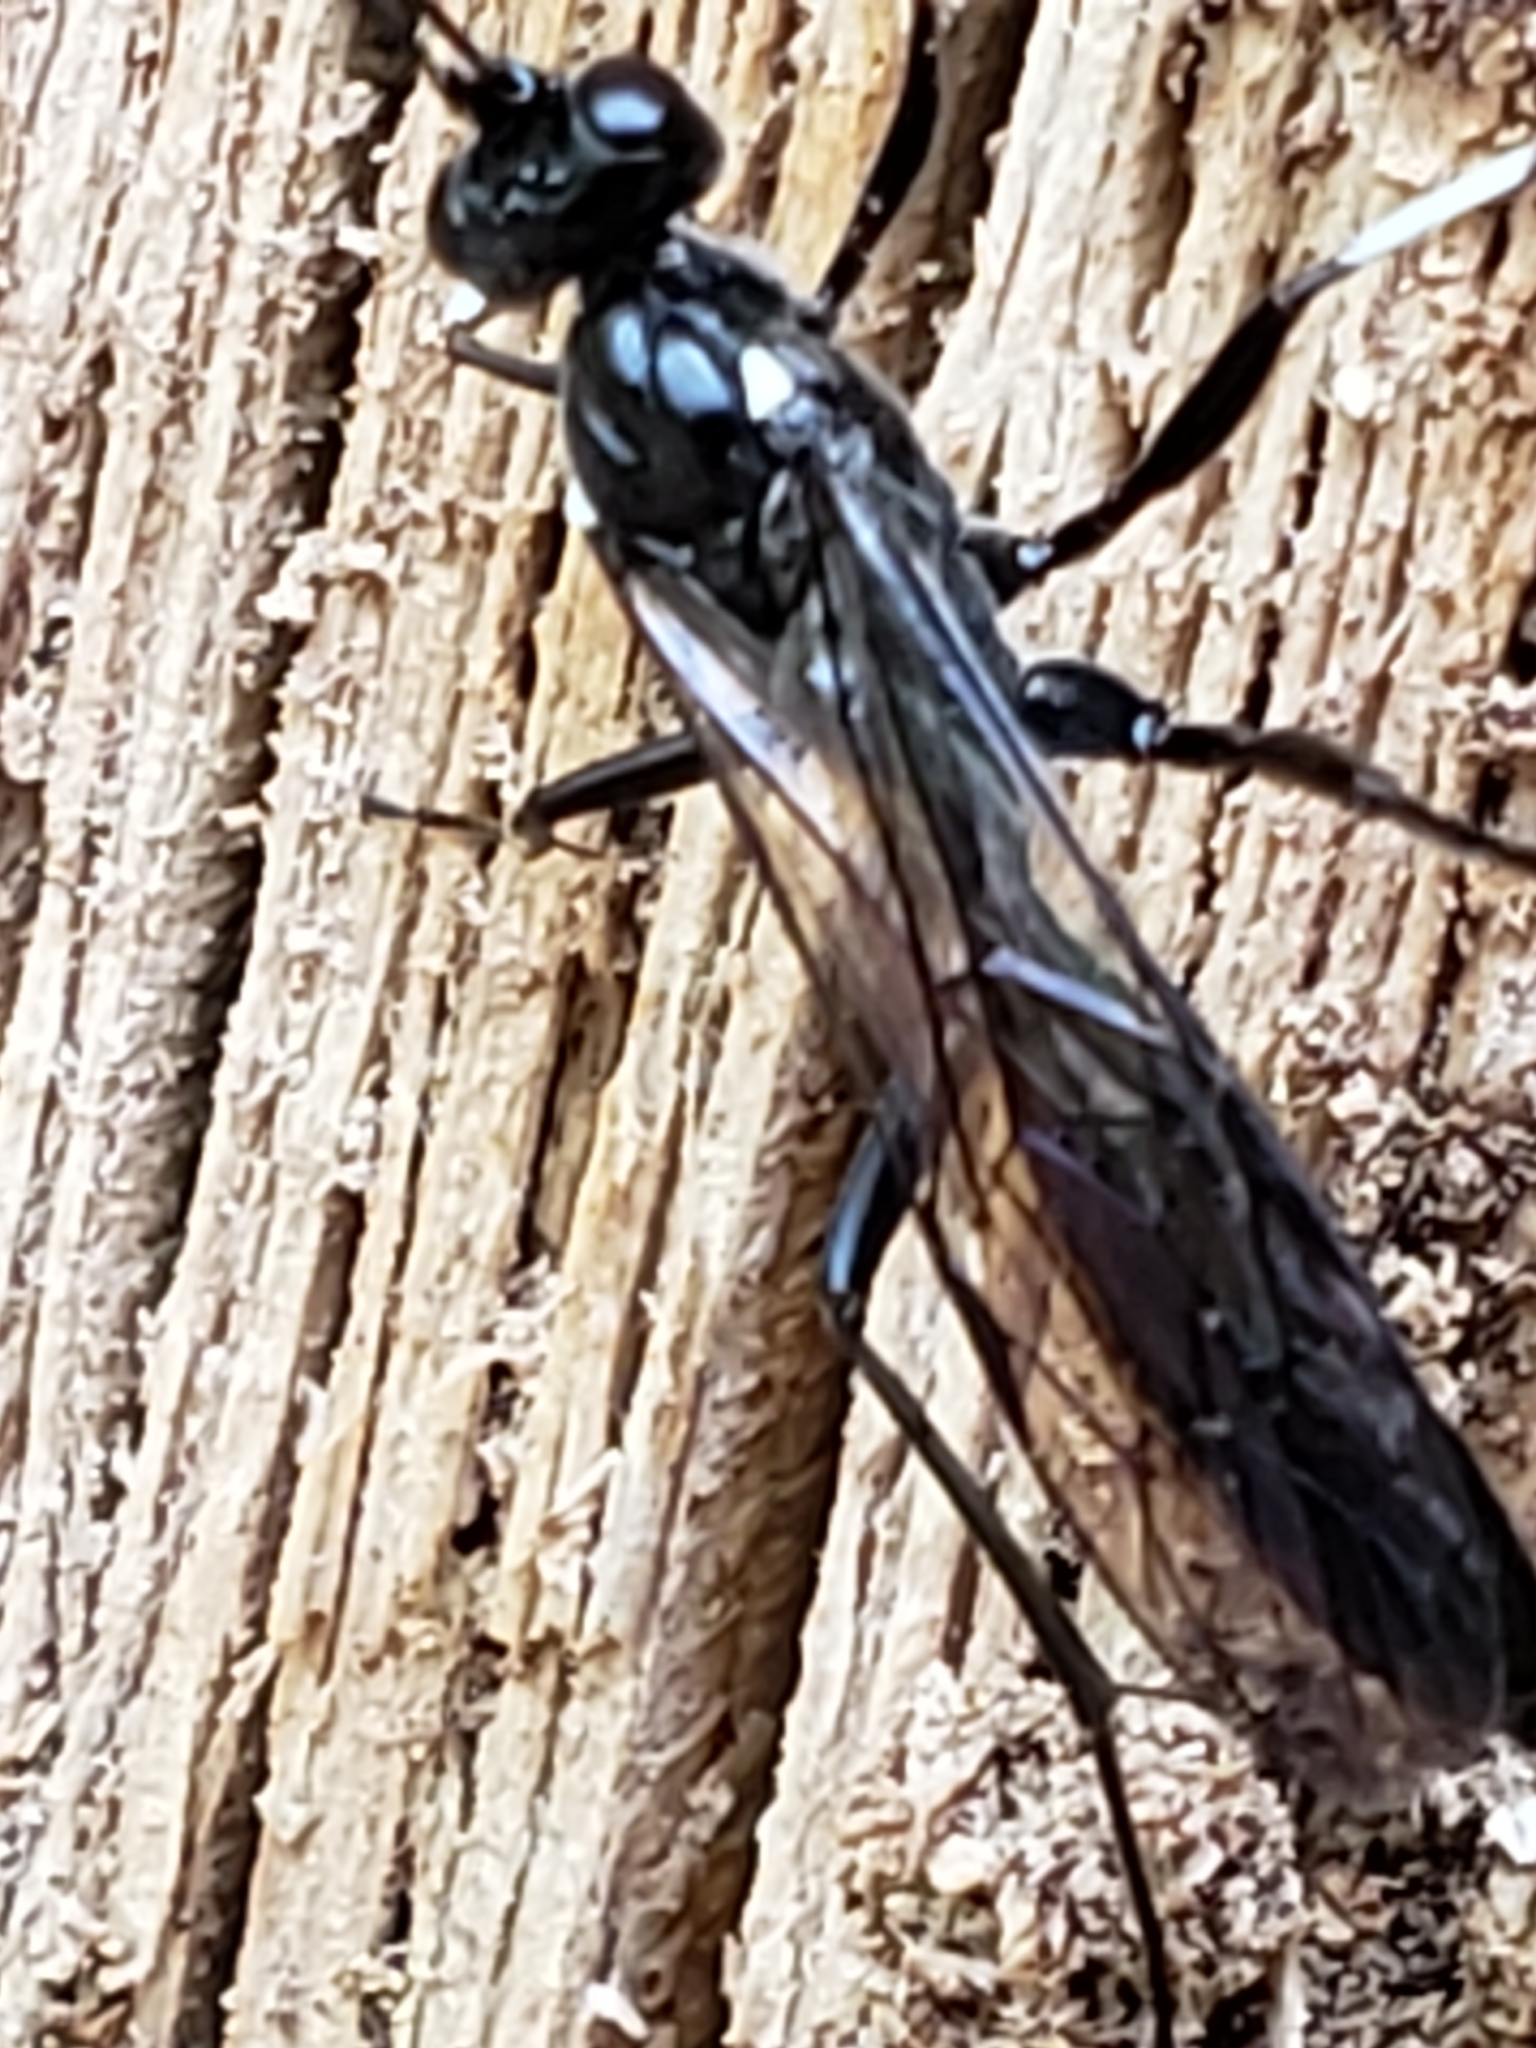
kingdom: Animalia
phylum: Arthropoda
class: Insecta
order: Hymenoptera
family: Ichneumonidae
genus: Echthrus
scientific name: Echthrus niger
